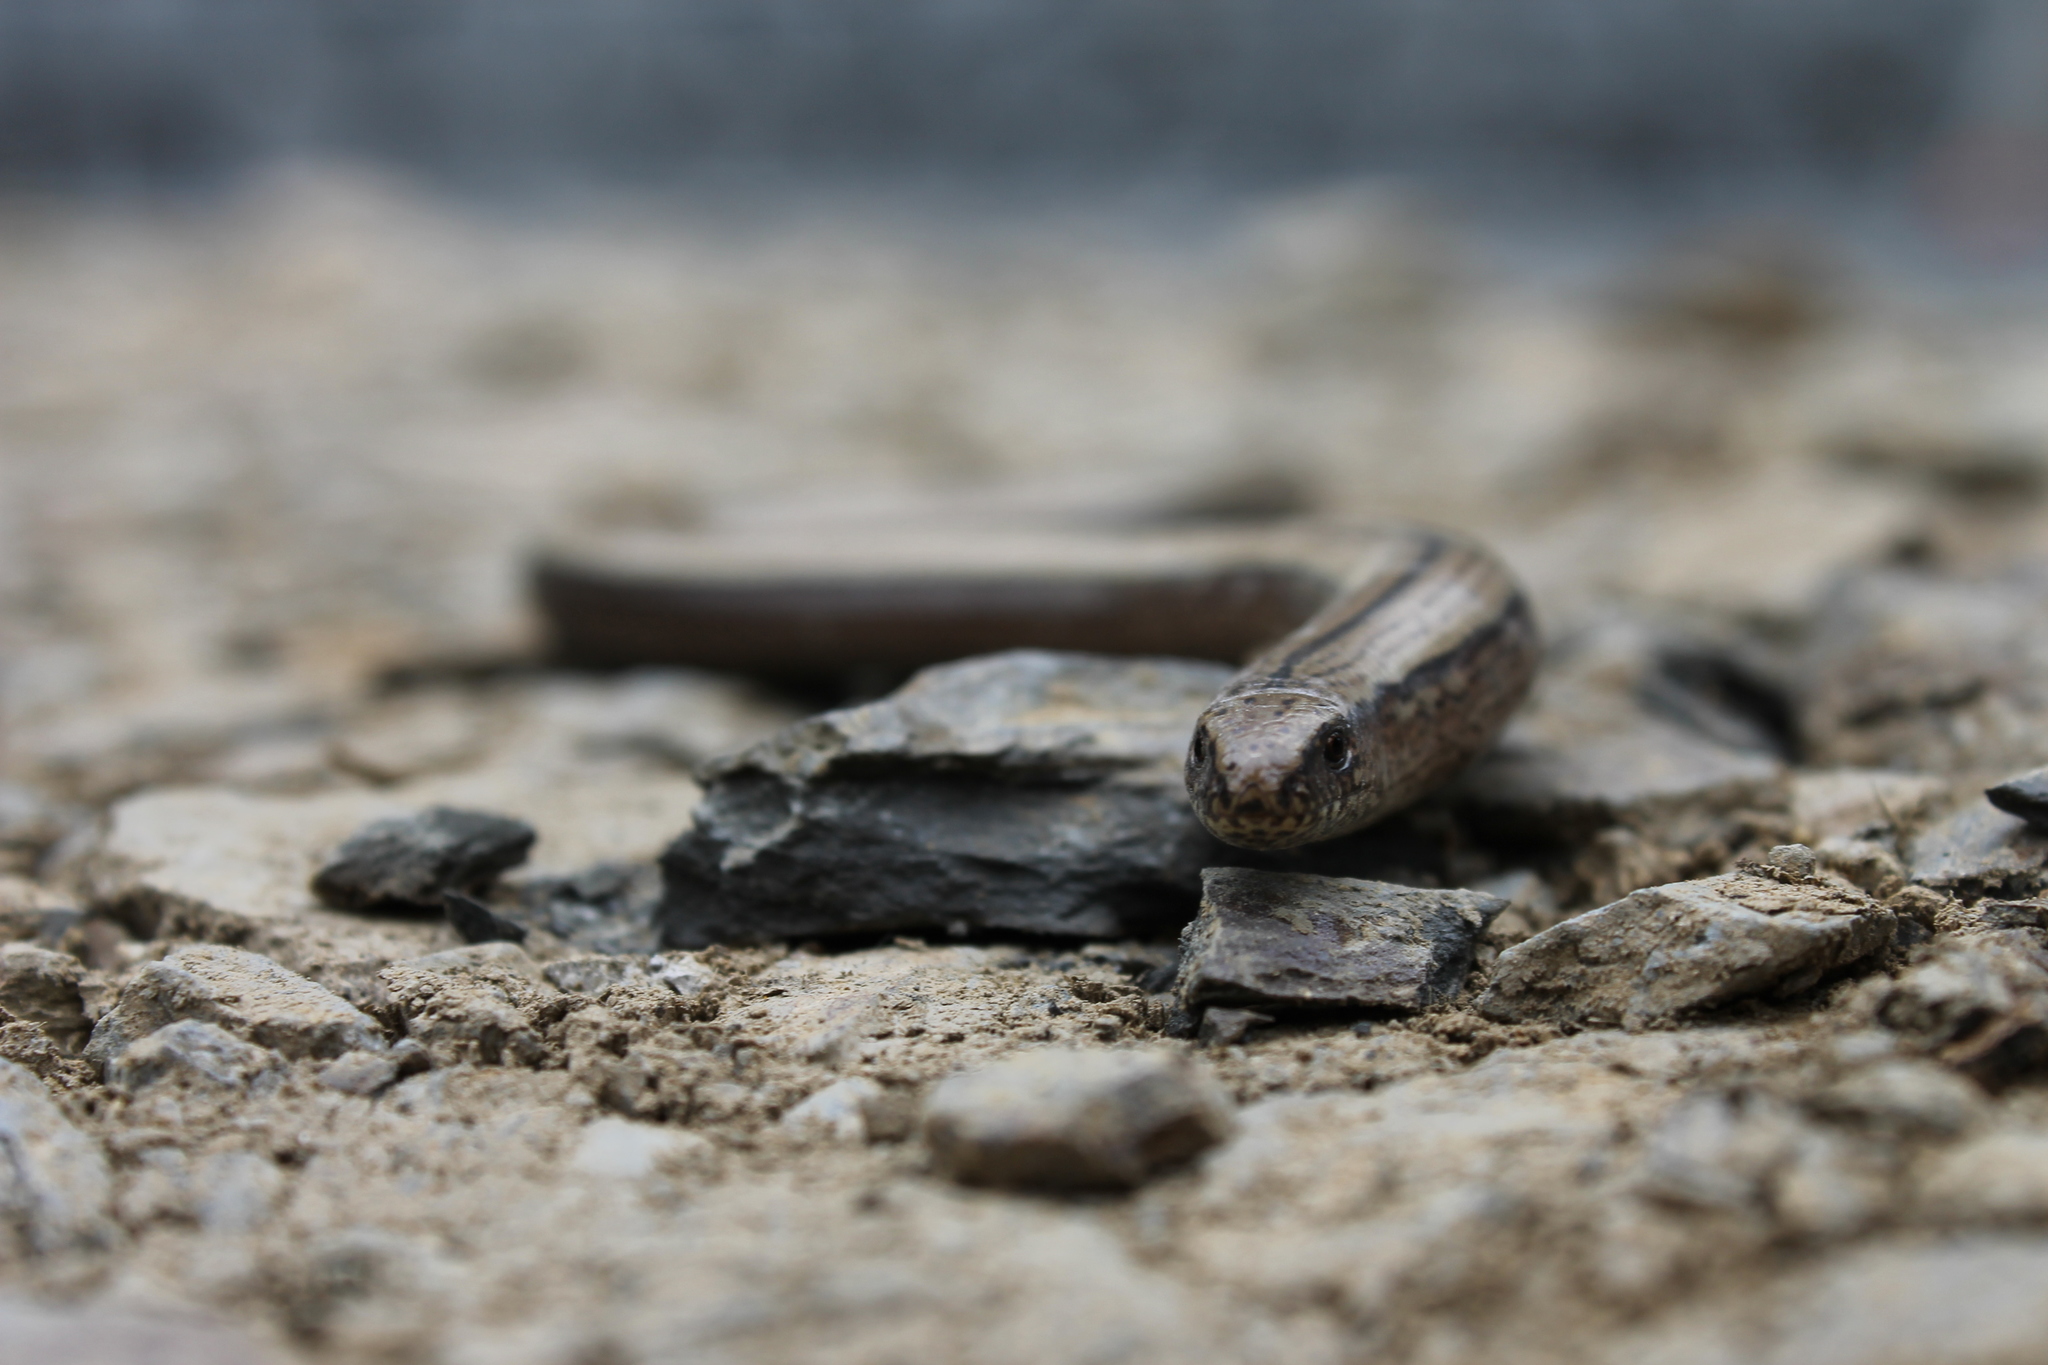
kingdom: Animalia
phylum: Chordata
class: Squamata
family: Anguidae
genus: Anguis
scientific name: Anguis fragilis
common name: Slow worm
